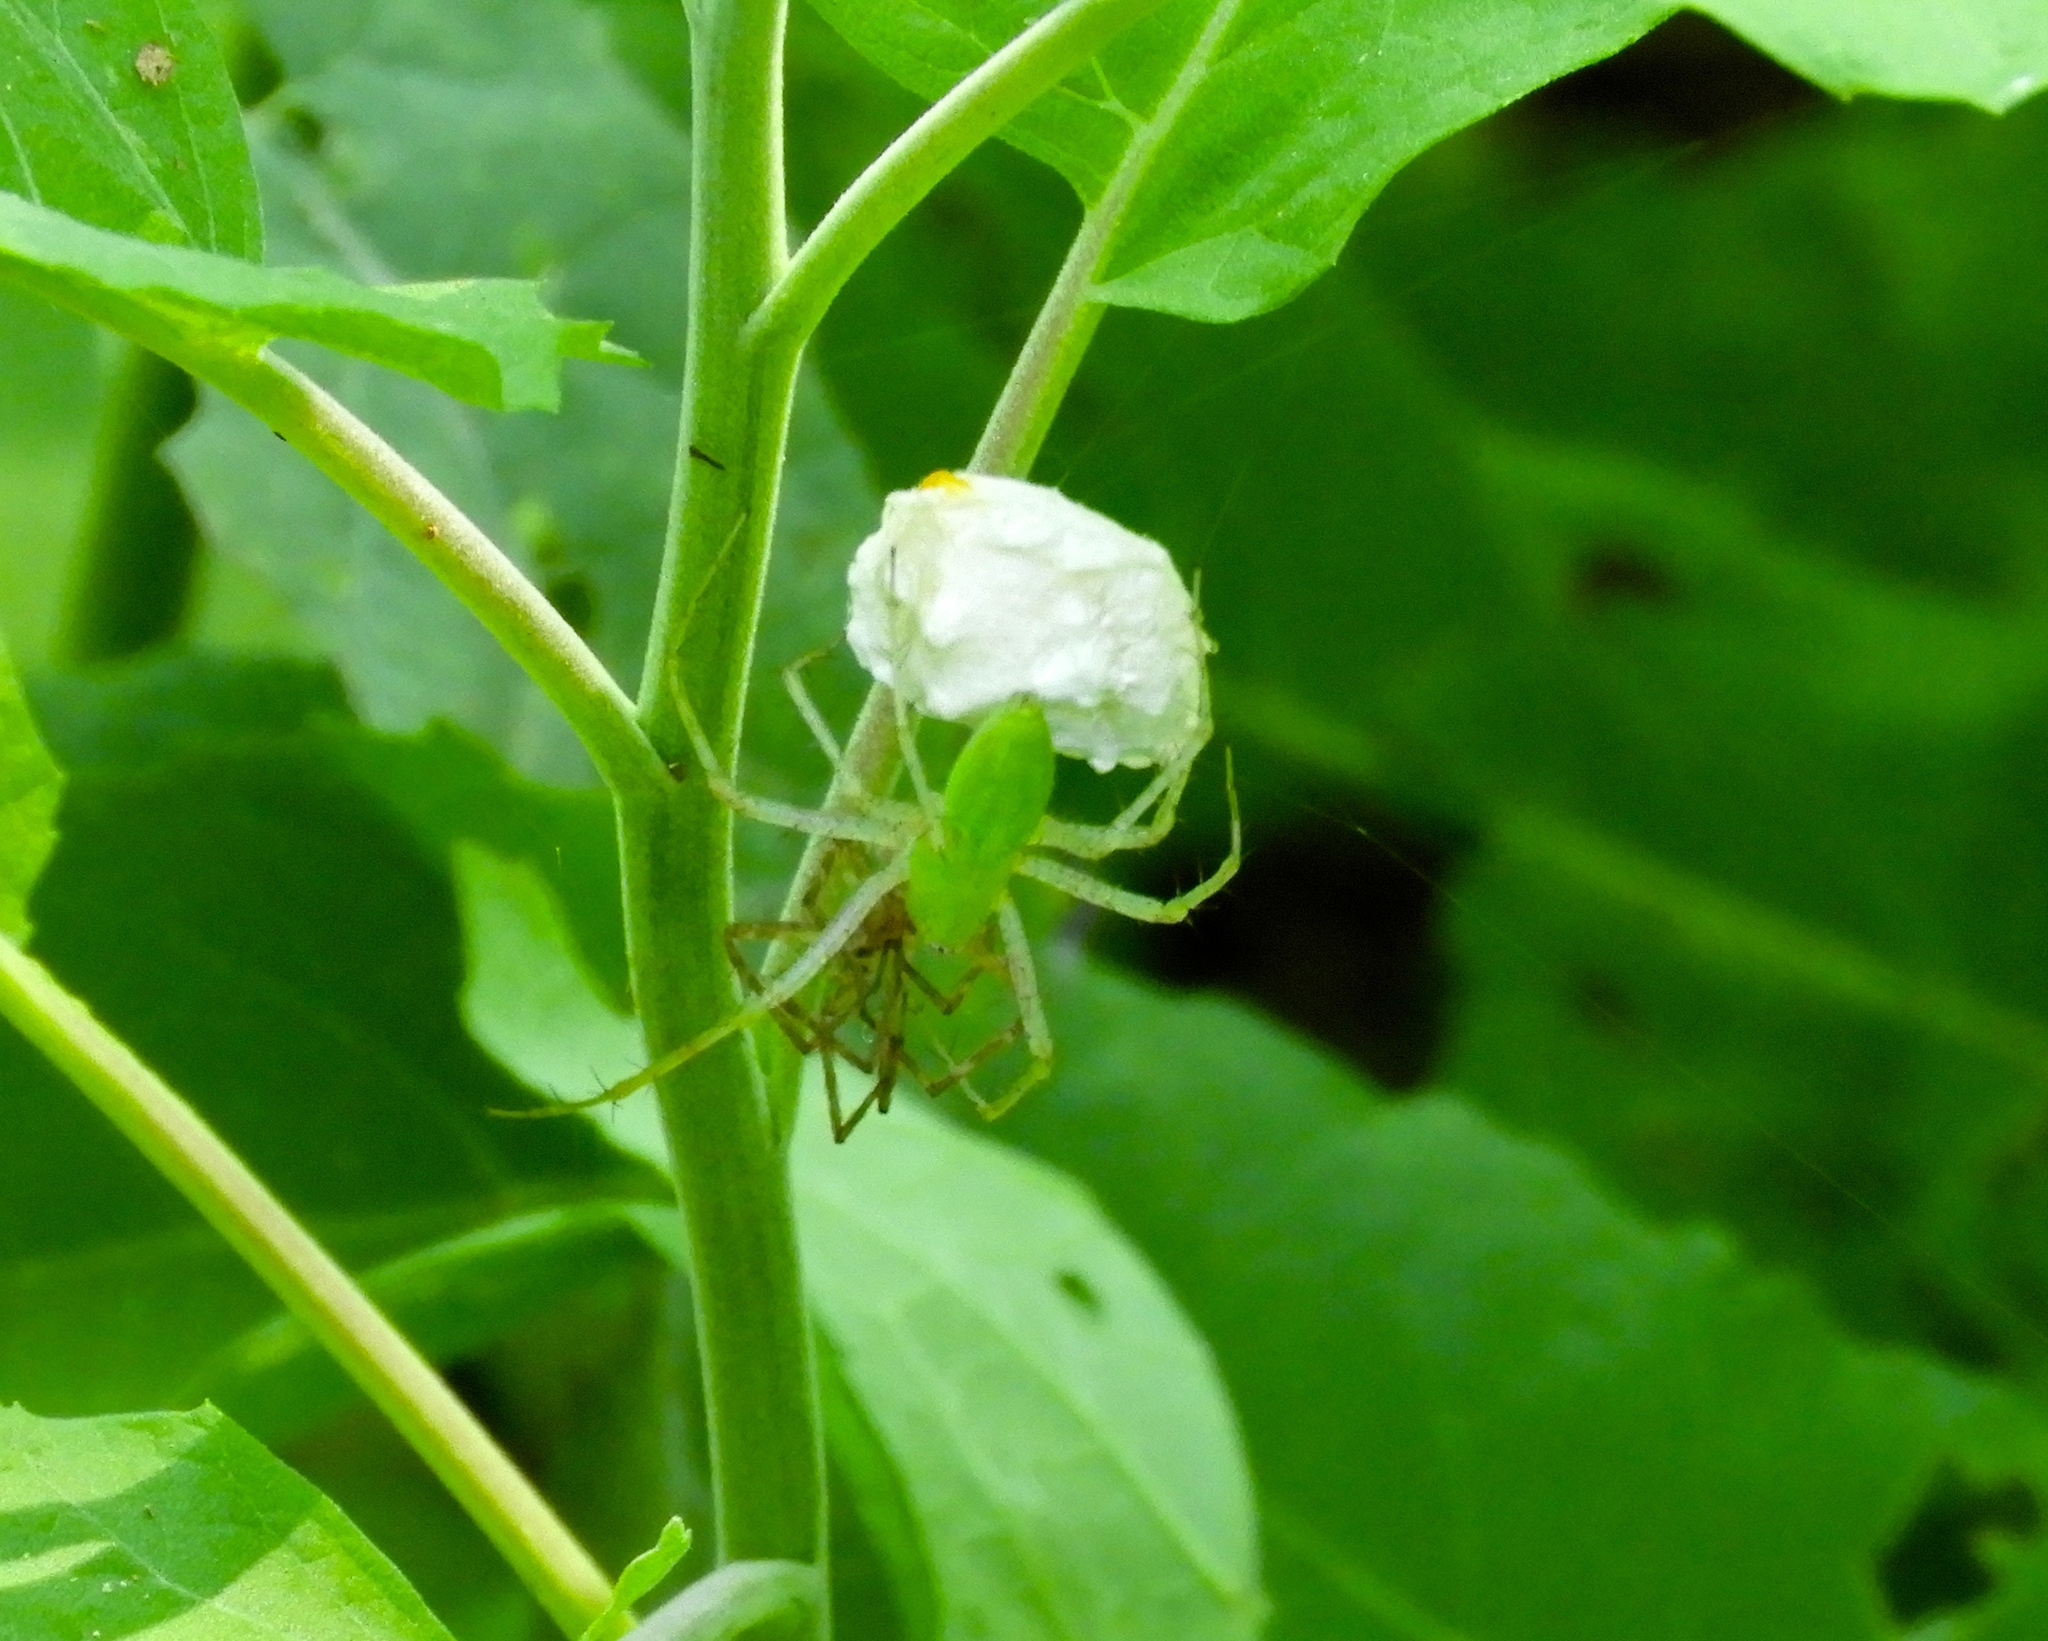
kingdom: Animalia
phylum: Arthropoda
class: Arachnida
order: Araneae
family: Oxyopidae
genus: Peucetia
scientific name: Peucetia
